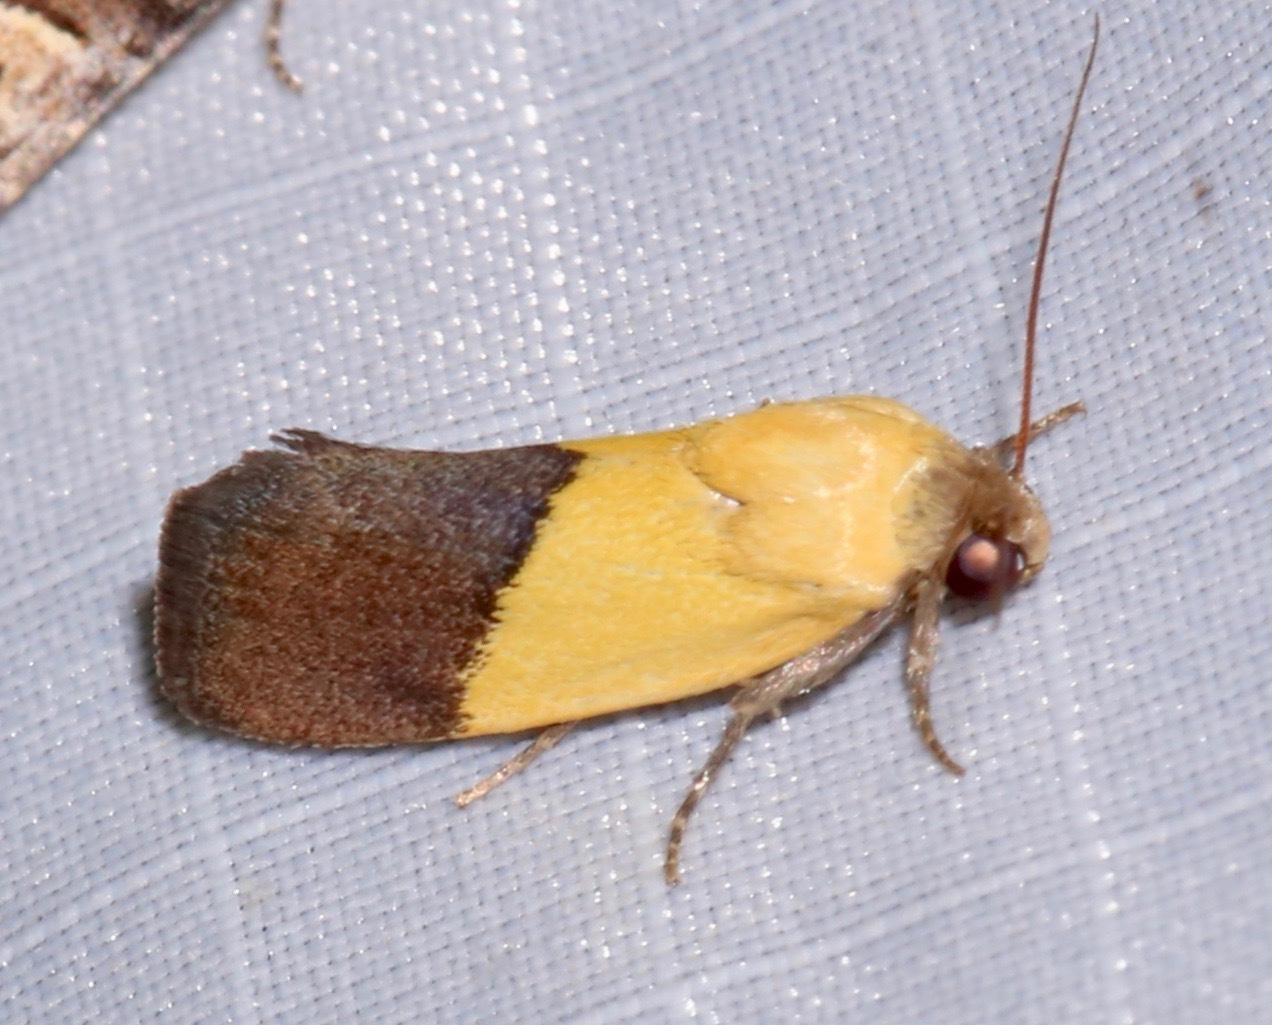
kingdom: Animalia
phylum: Arthropoda
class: Insecta
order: Lepidoptera
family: Noctuidae
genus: Acontia
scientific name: Acontia semiflava
